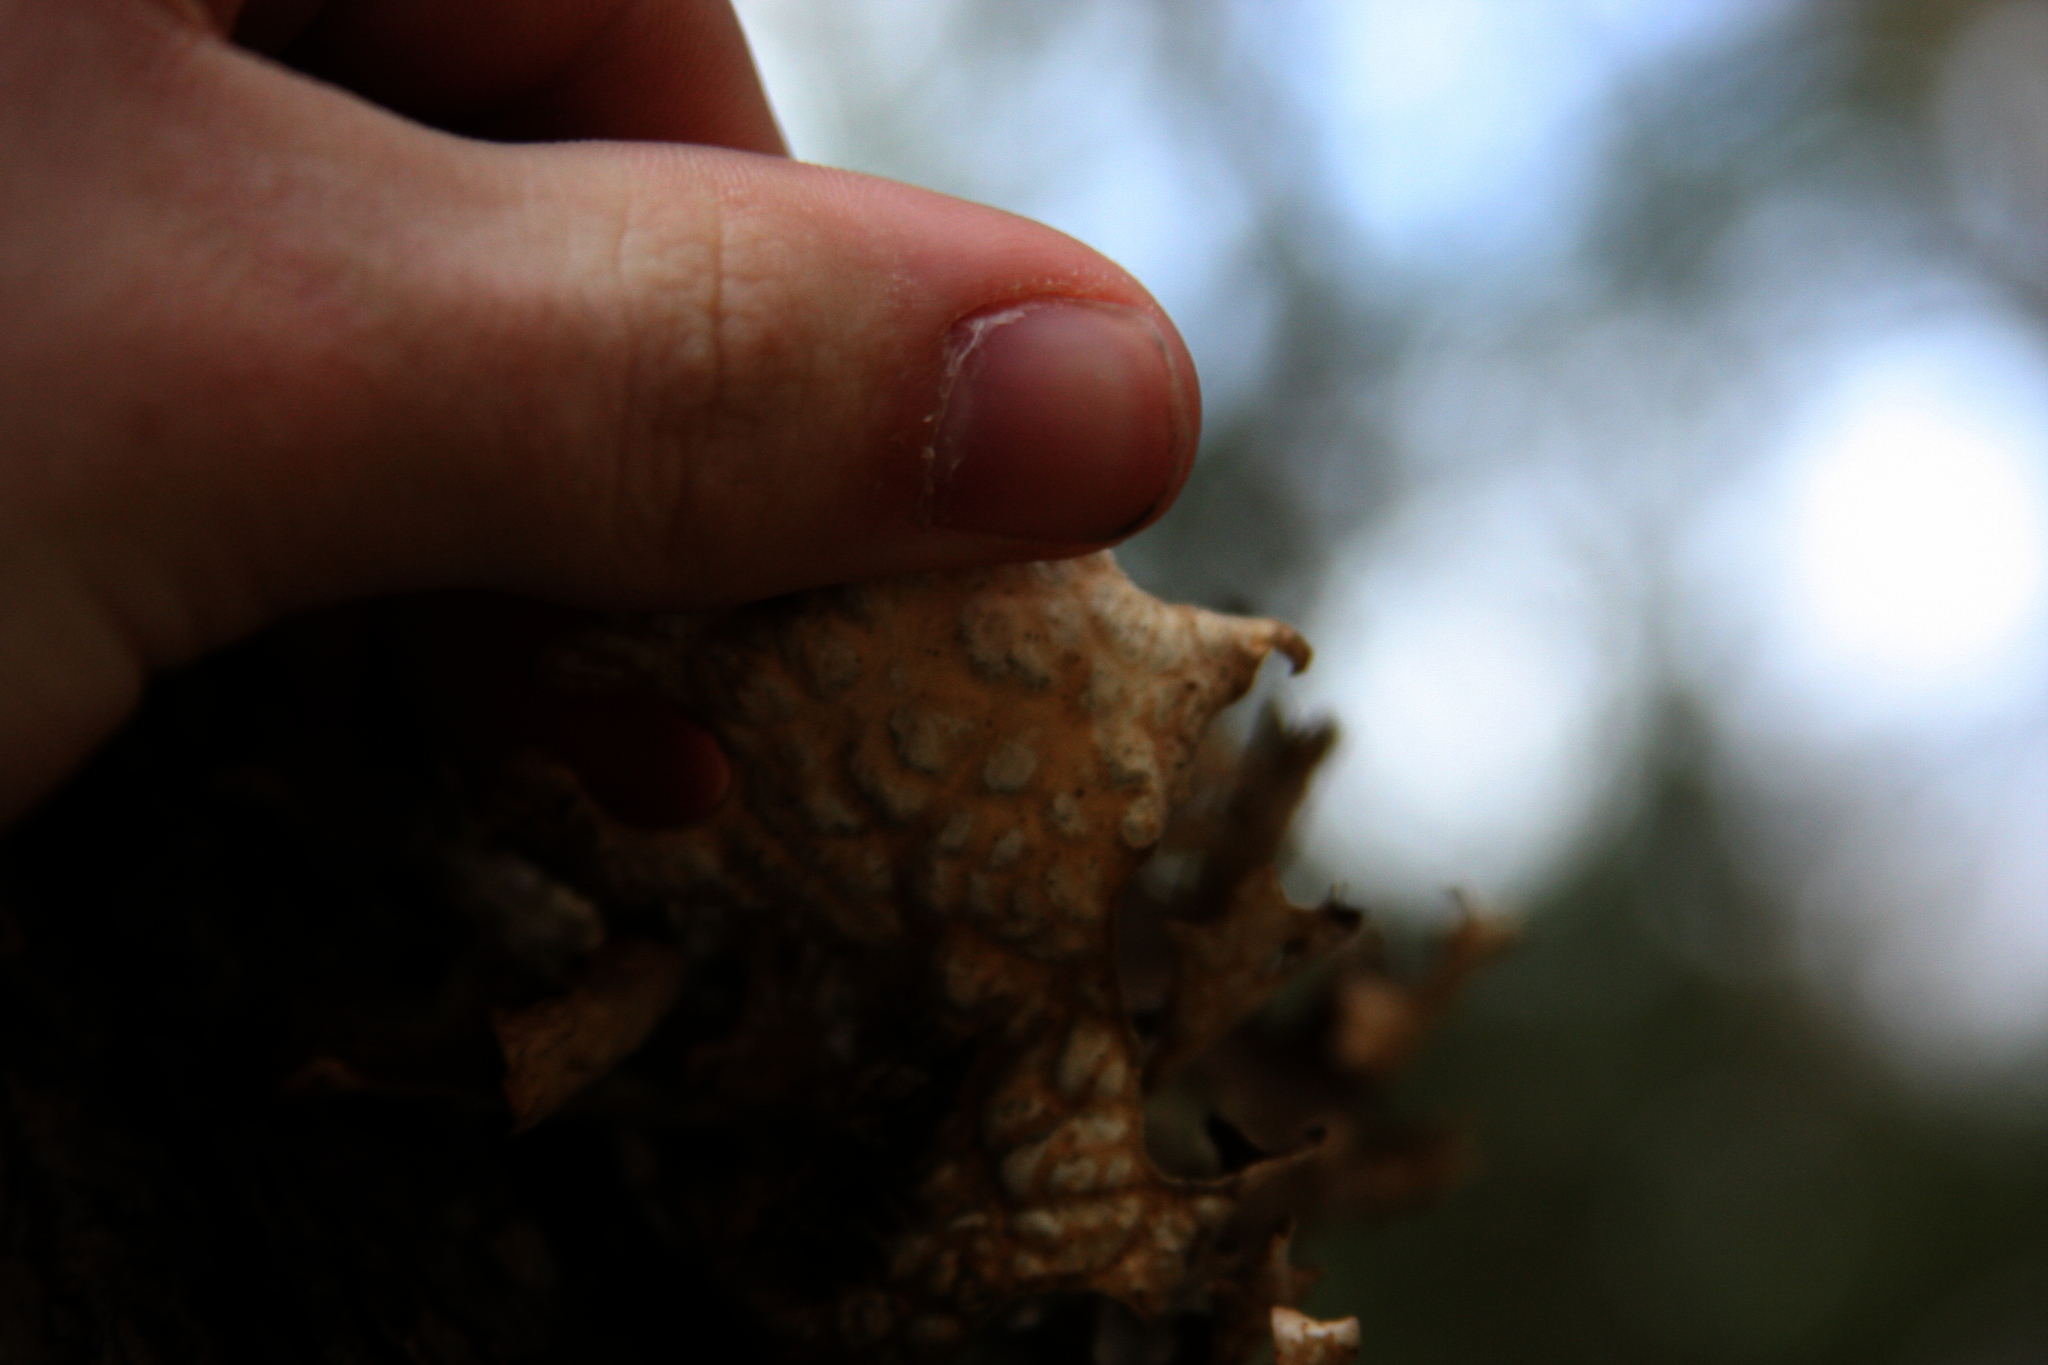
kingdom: Fungi
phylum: Ascomycota
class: Lecanoromycetes
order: Peltigerales
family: Lobariaceae
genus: Lobaria
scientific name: Lobaria pulmonaria
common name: Lungwort
